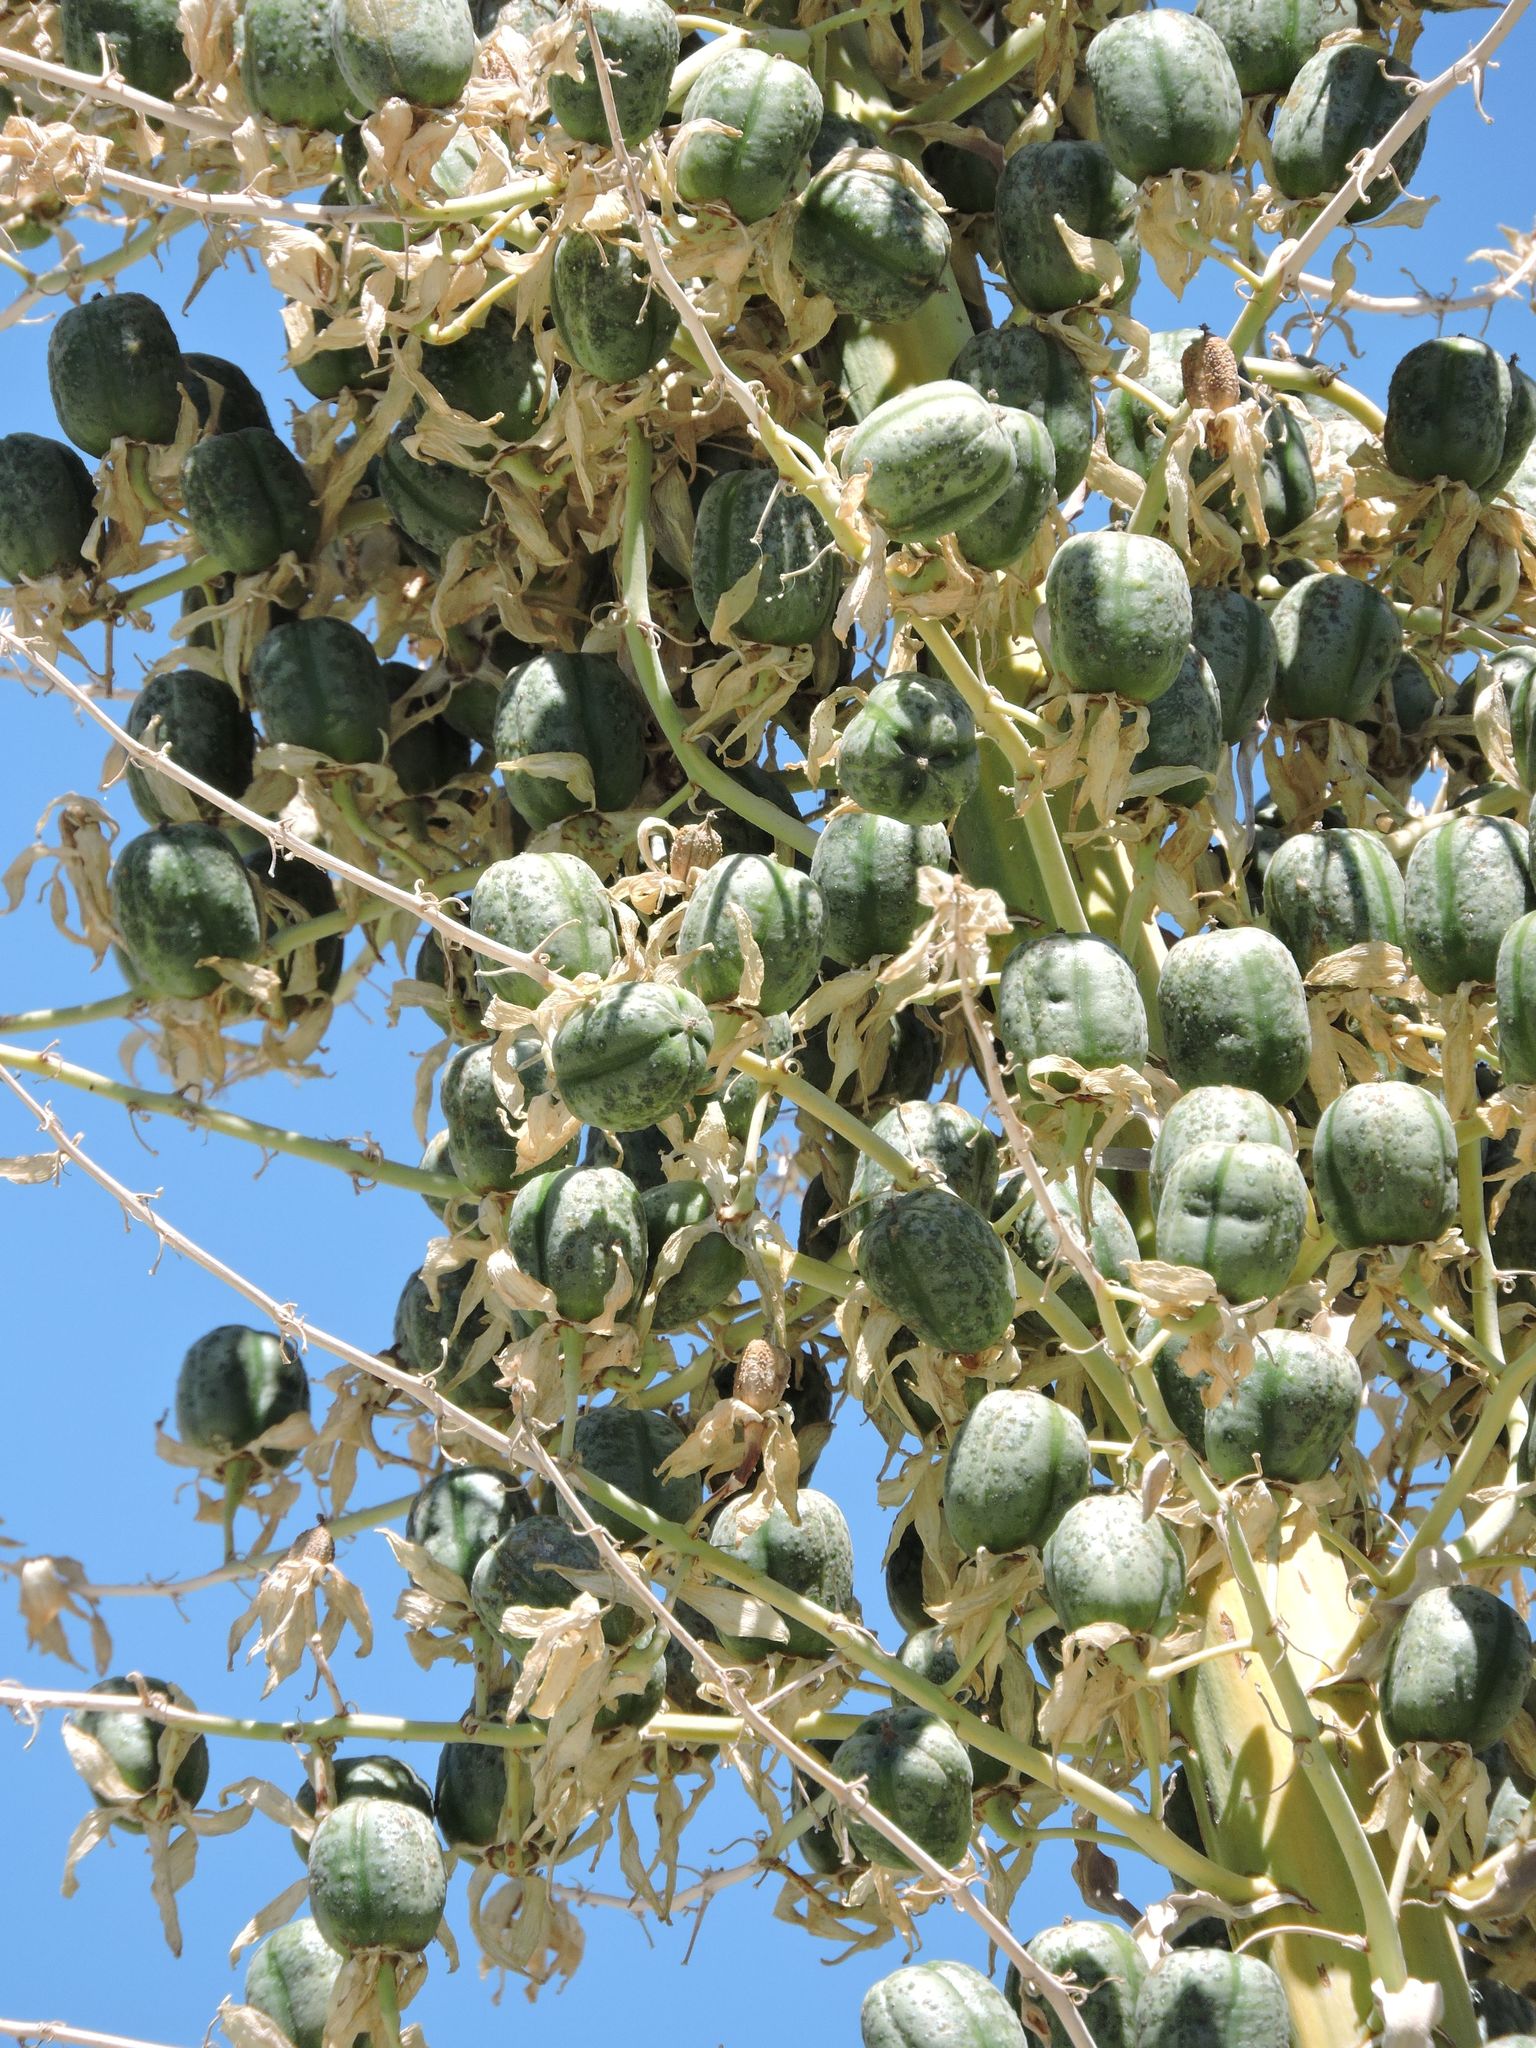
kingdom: Plantae
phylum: Tracheophyta
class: Liliopsida
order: Asparagales
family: Asparagaceae
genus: Hesperoyucca
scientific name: Hesperoyucca whipplei
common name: Our lord's-candle
